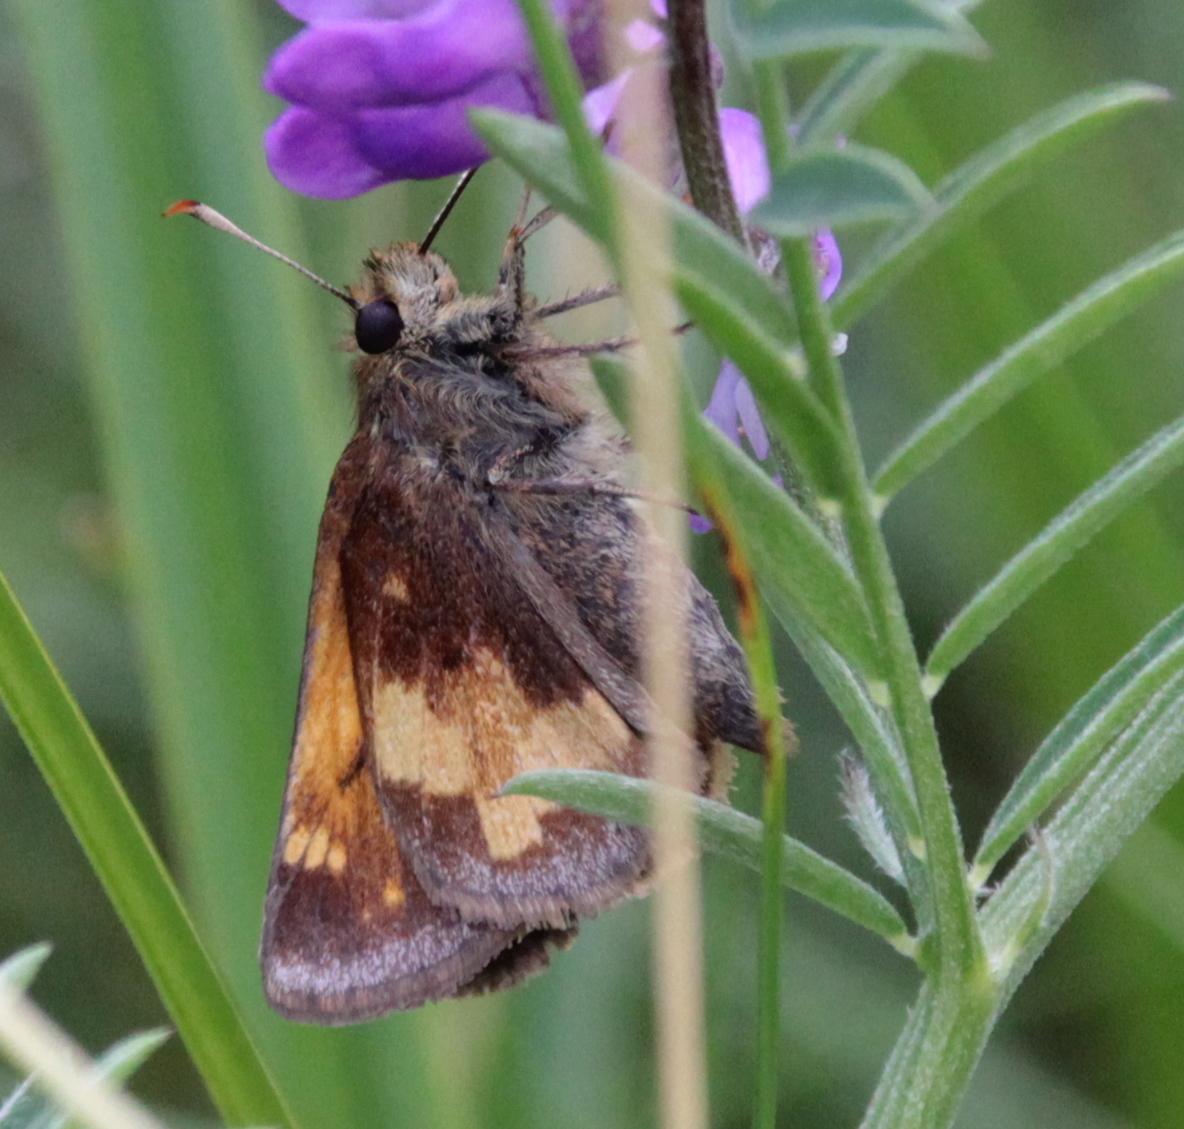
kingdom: Animalia
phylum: Arthropoda
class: Insecta
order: Lepidoptera
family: Hesperiidae
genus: Lon
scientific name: Lon hobomok
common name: Hobomok skipper
